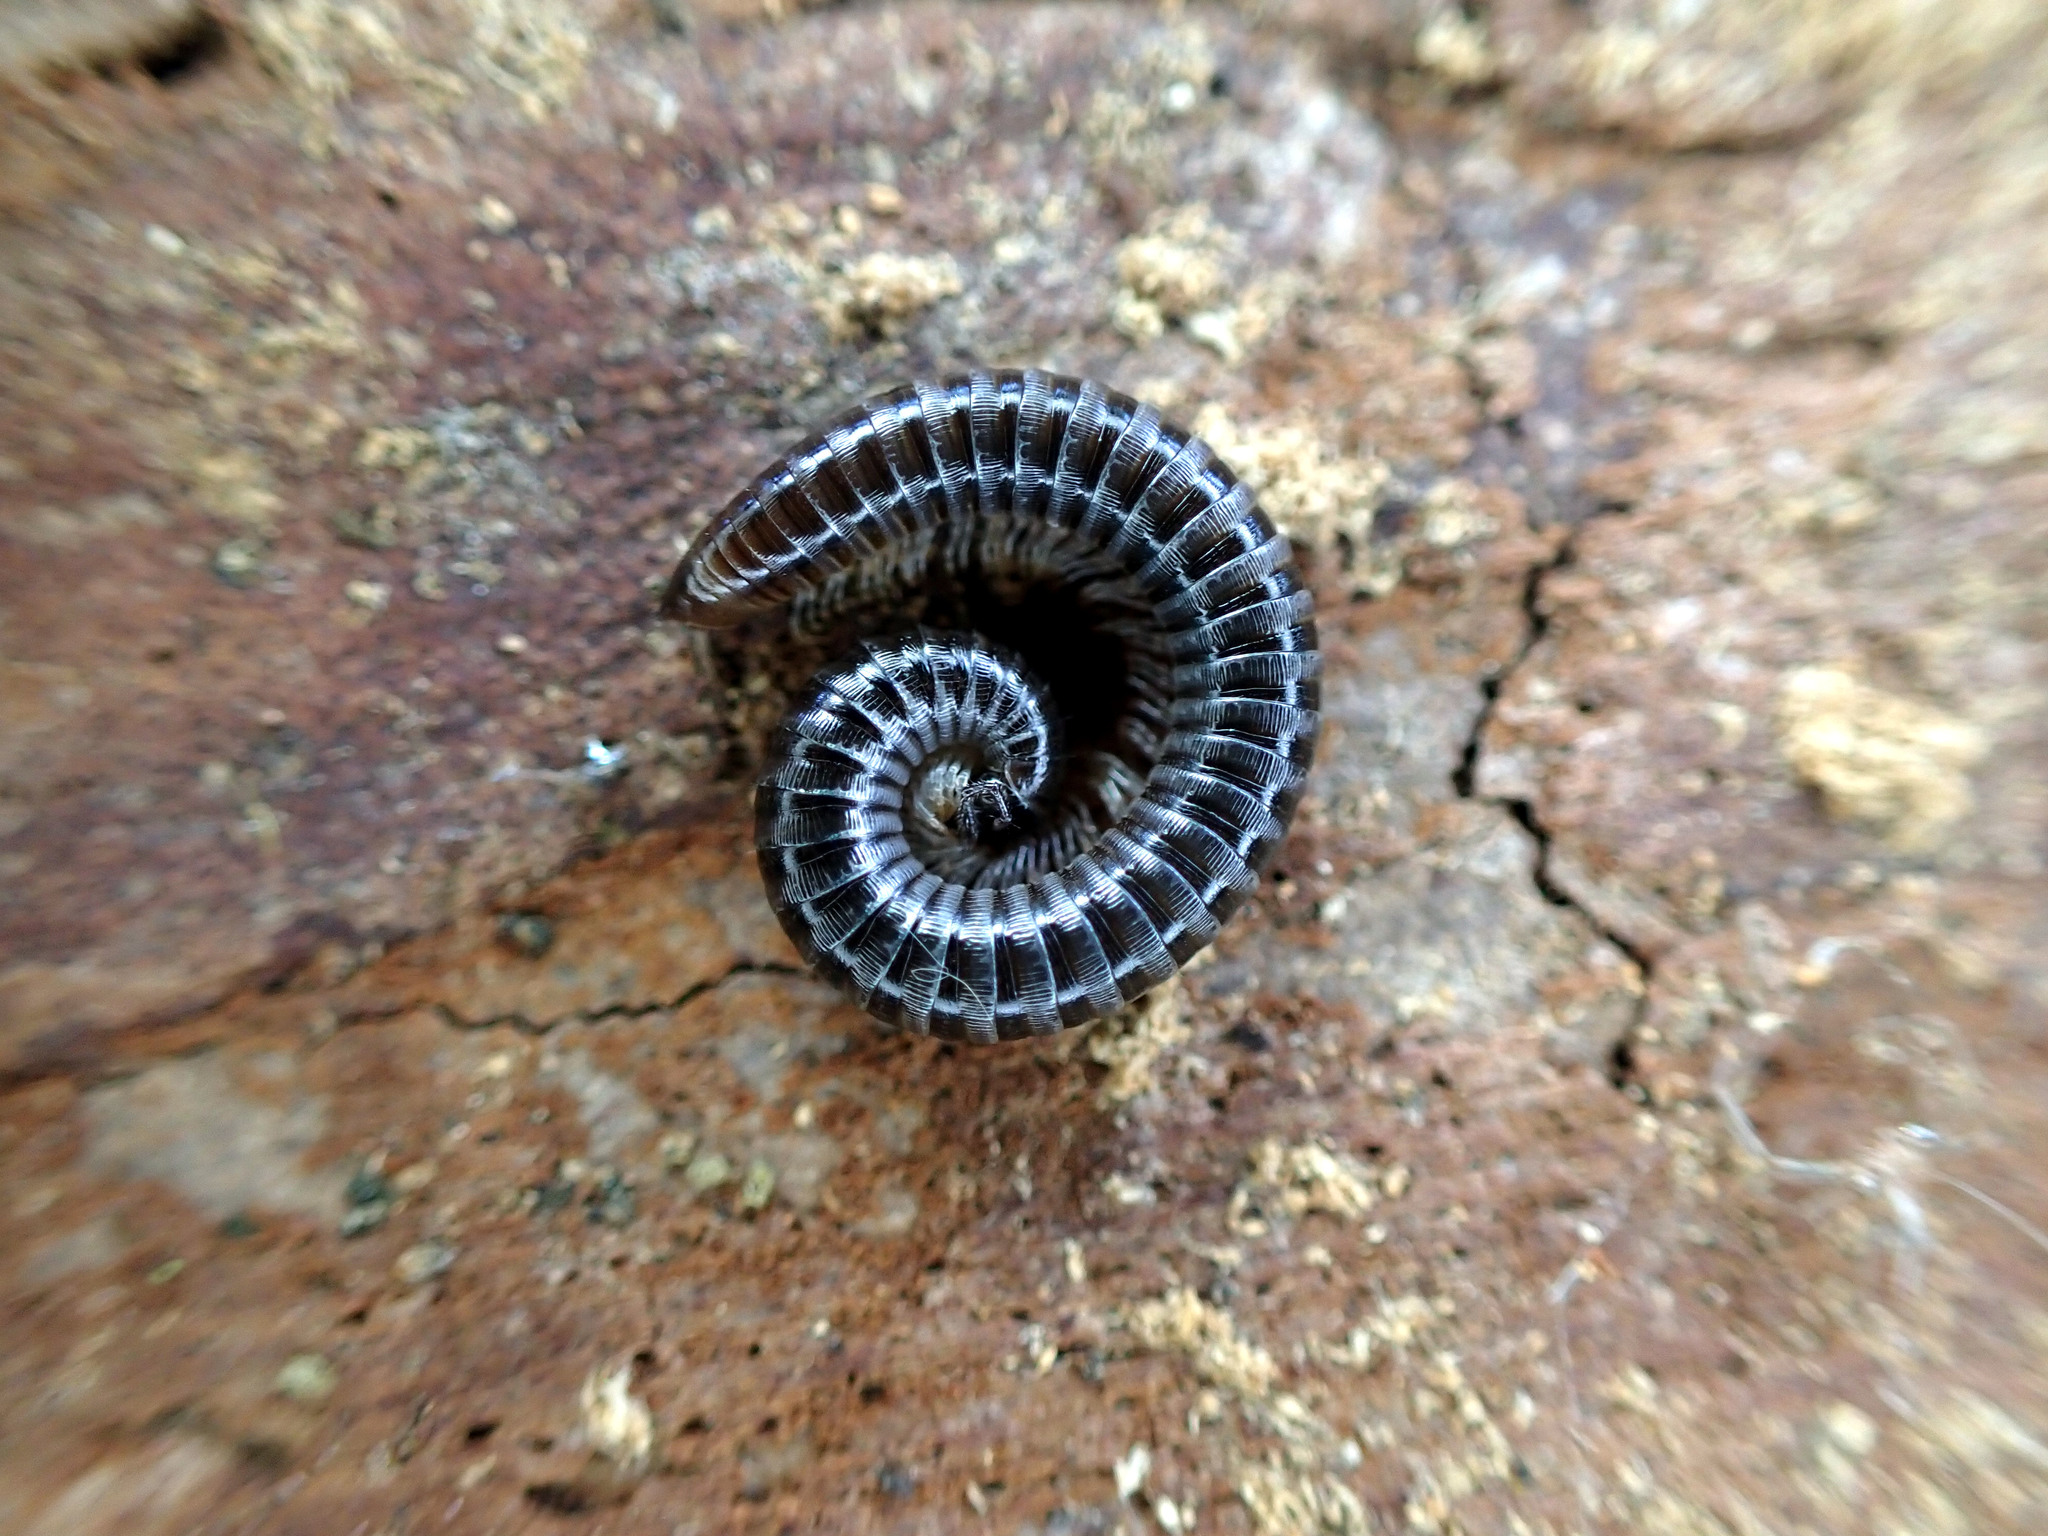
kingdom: Animalia
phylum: Arthropoda
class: Diplopoda
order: Julida
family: Julidae
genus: Tachypodoiulus
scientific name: Tachypodoiulus niger
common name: White-legged snake millipede
